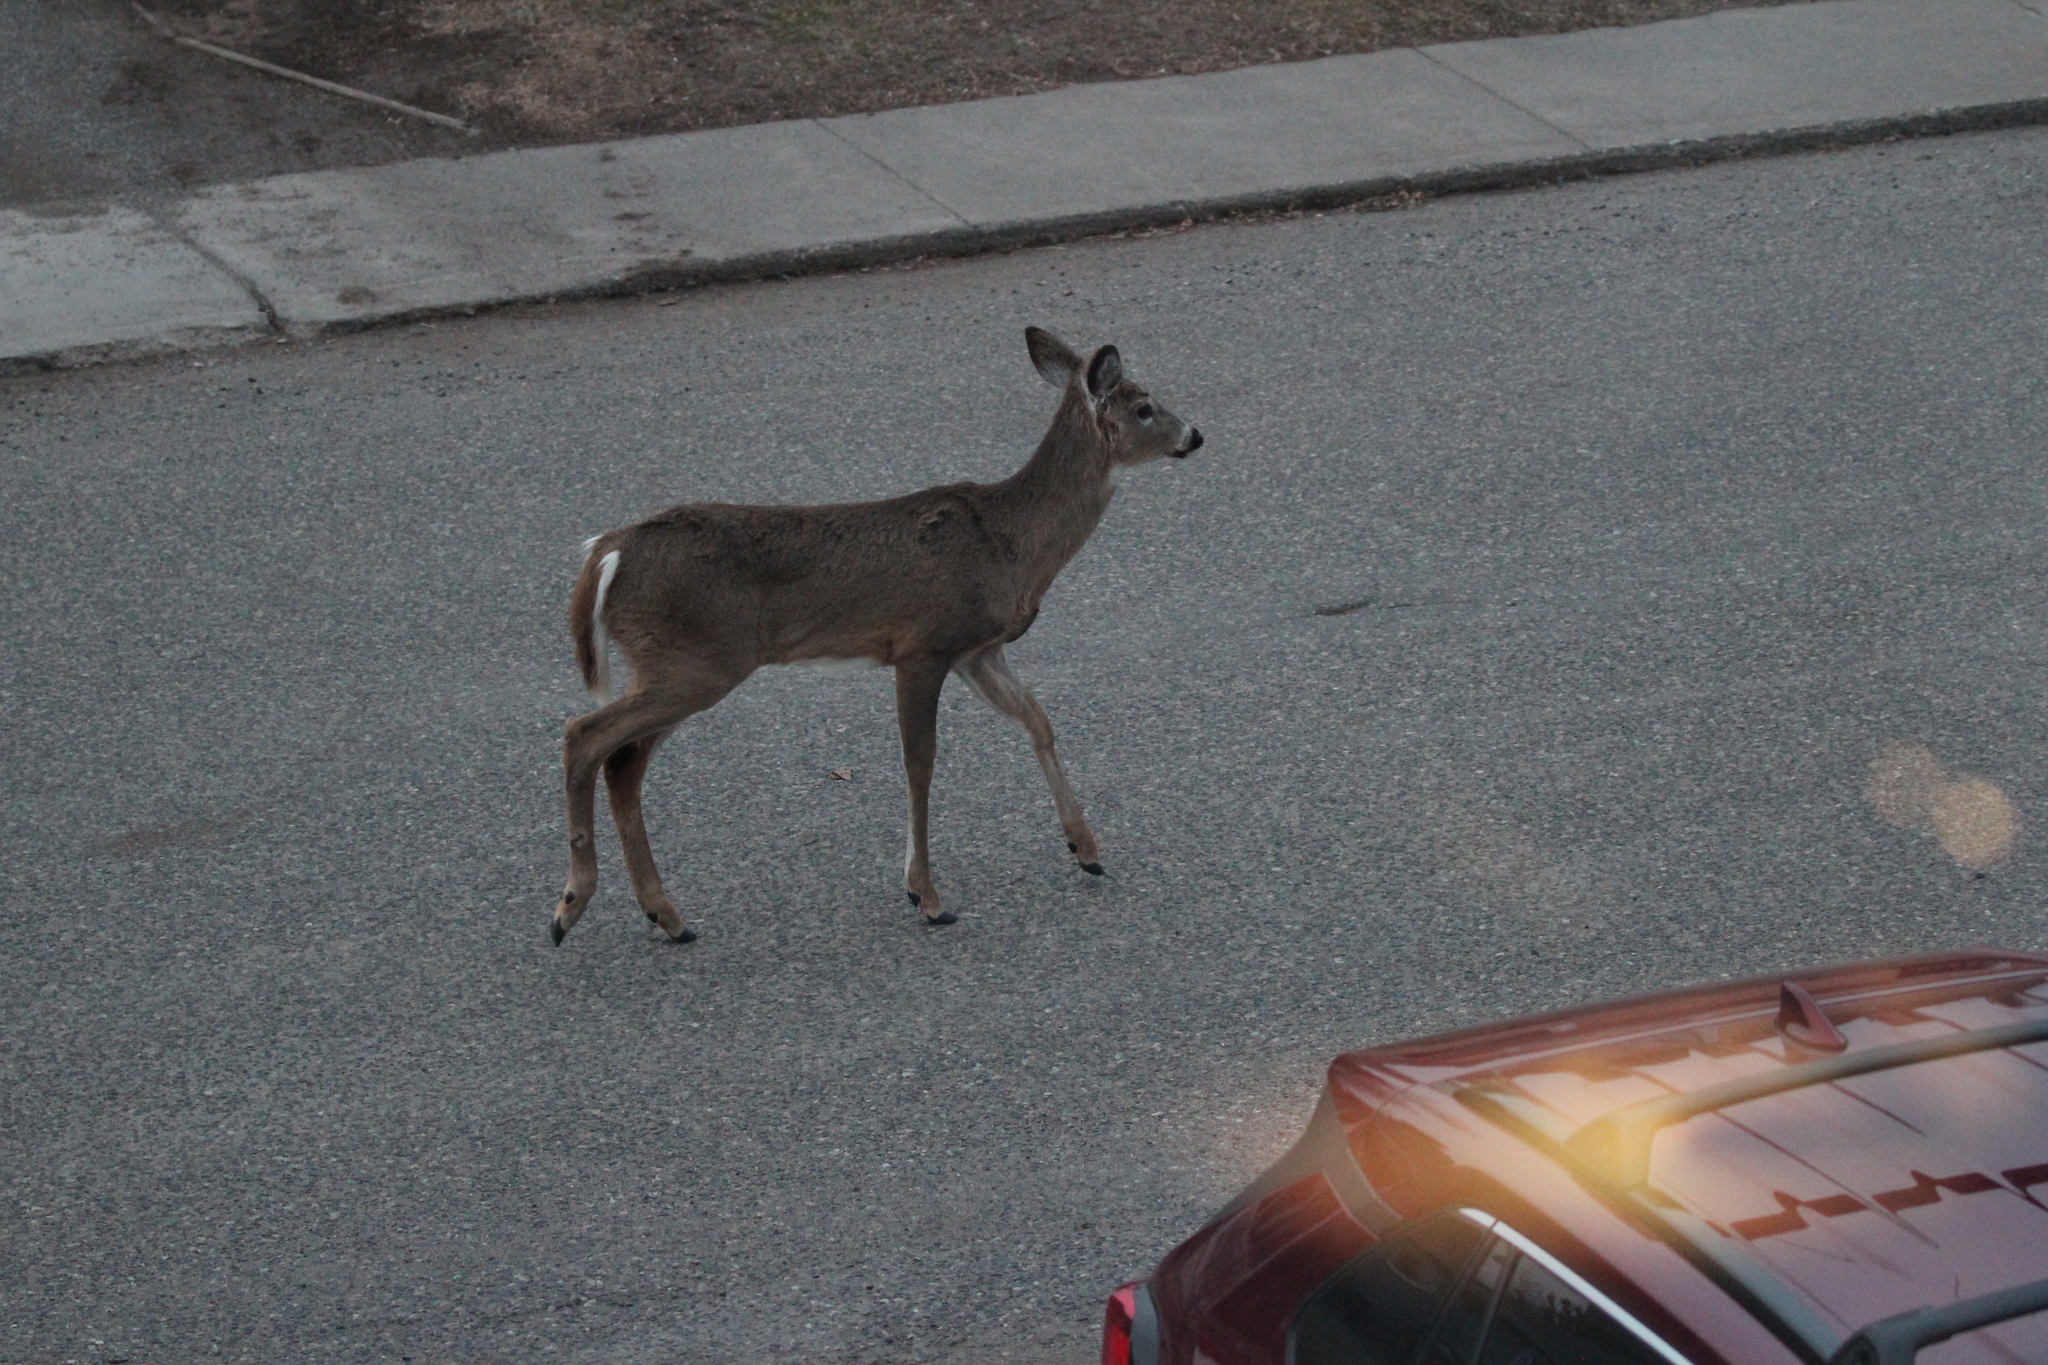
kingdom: Animalia
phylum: Chordata
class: Mammalia
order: Artiodactyla
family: Cervidae
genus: Odocoileus
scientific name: Odocoileus virginianus
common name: White-tailed deer
